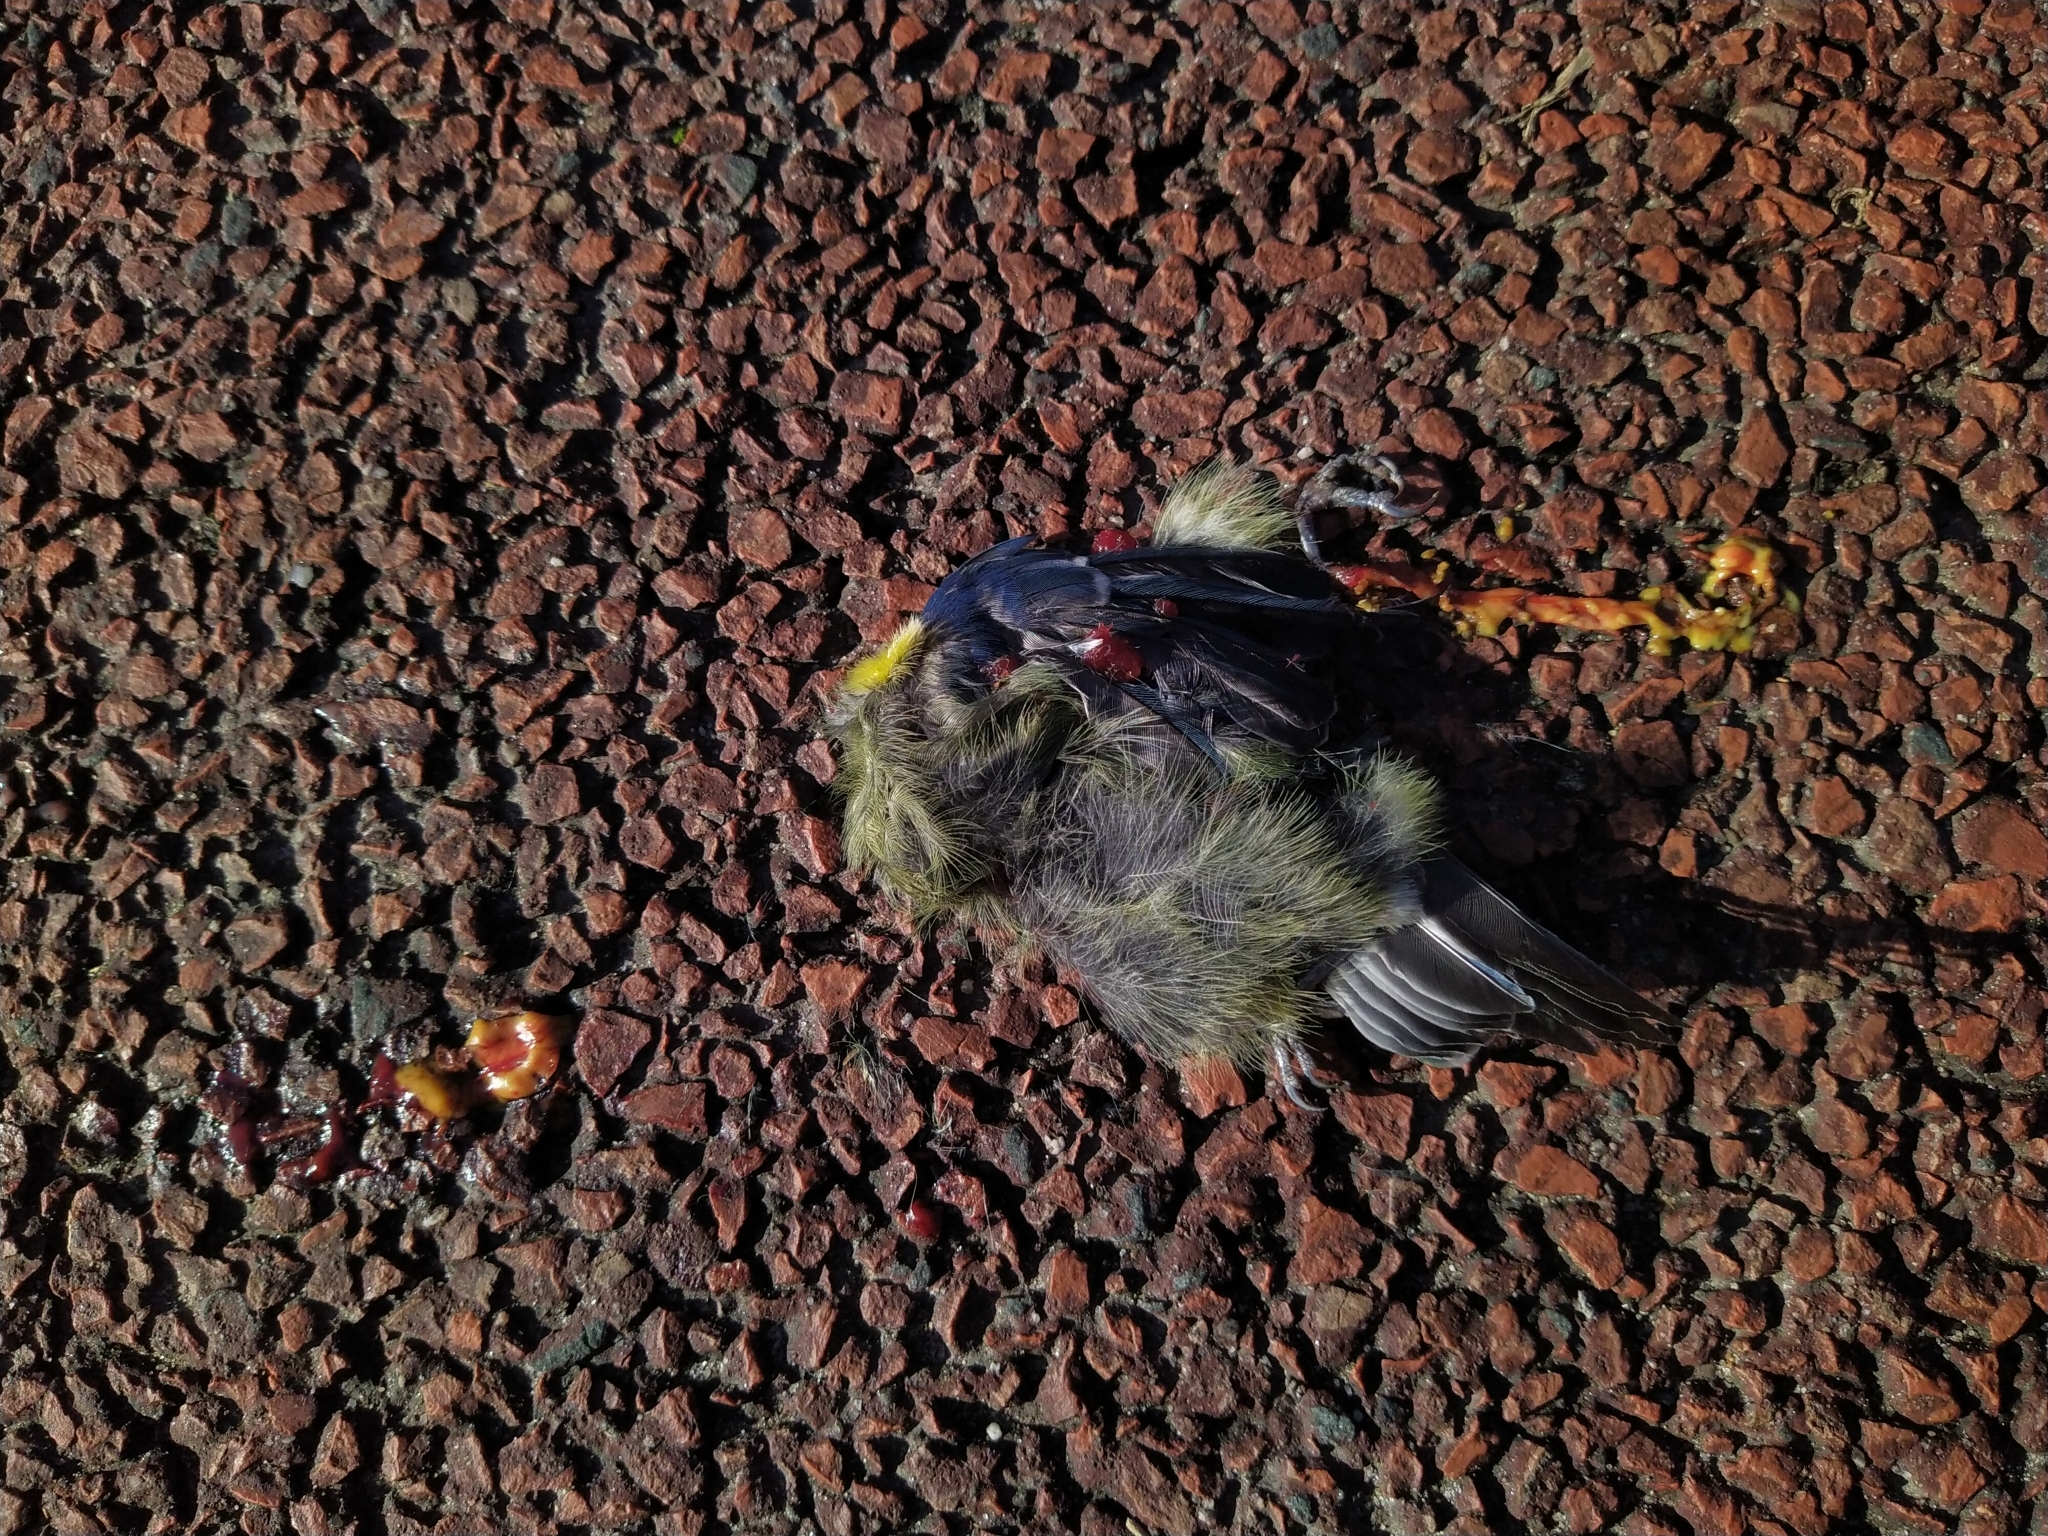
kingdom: Animalia
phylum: Chordata
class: Aves
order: Passeriformes
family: Paridae
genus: Cyanistes
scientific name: Cyanistes caeruleus
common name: Eurasian blue tit
